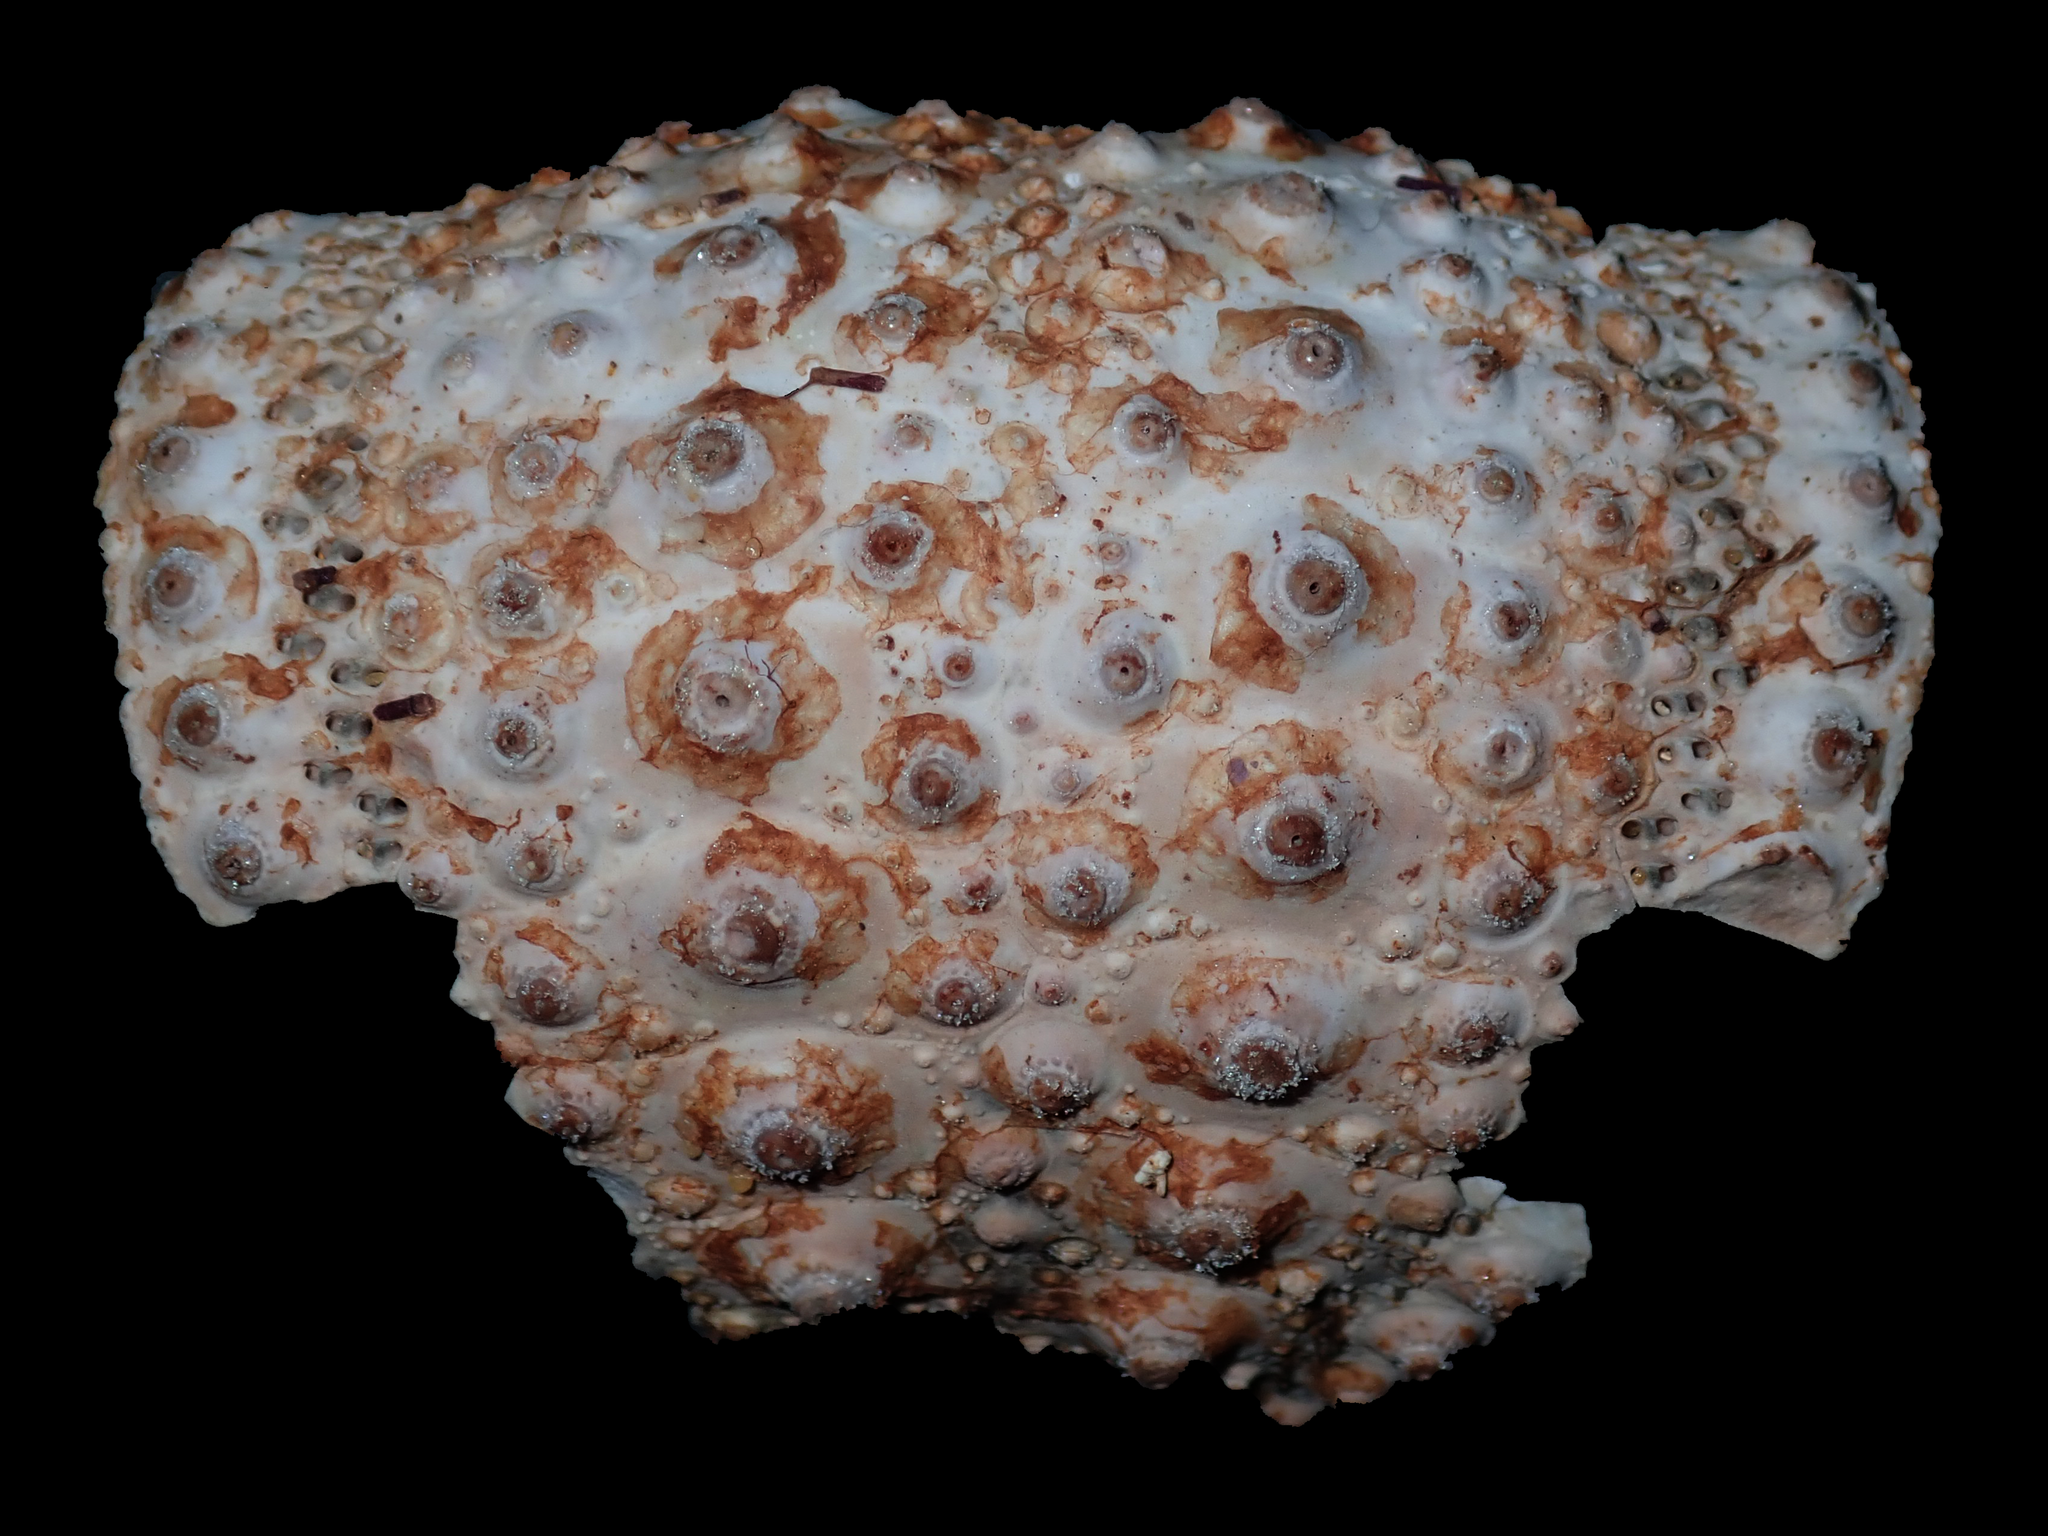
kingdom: Animalia
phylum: Echinodermata
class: Echinoidea
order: Diadematoida
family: Diadematidae
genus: Centrostephanus
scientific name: Centrostephanus rodgersii
